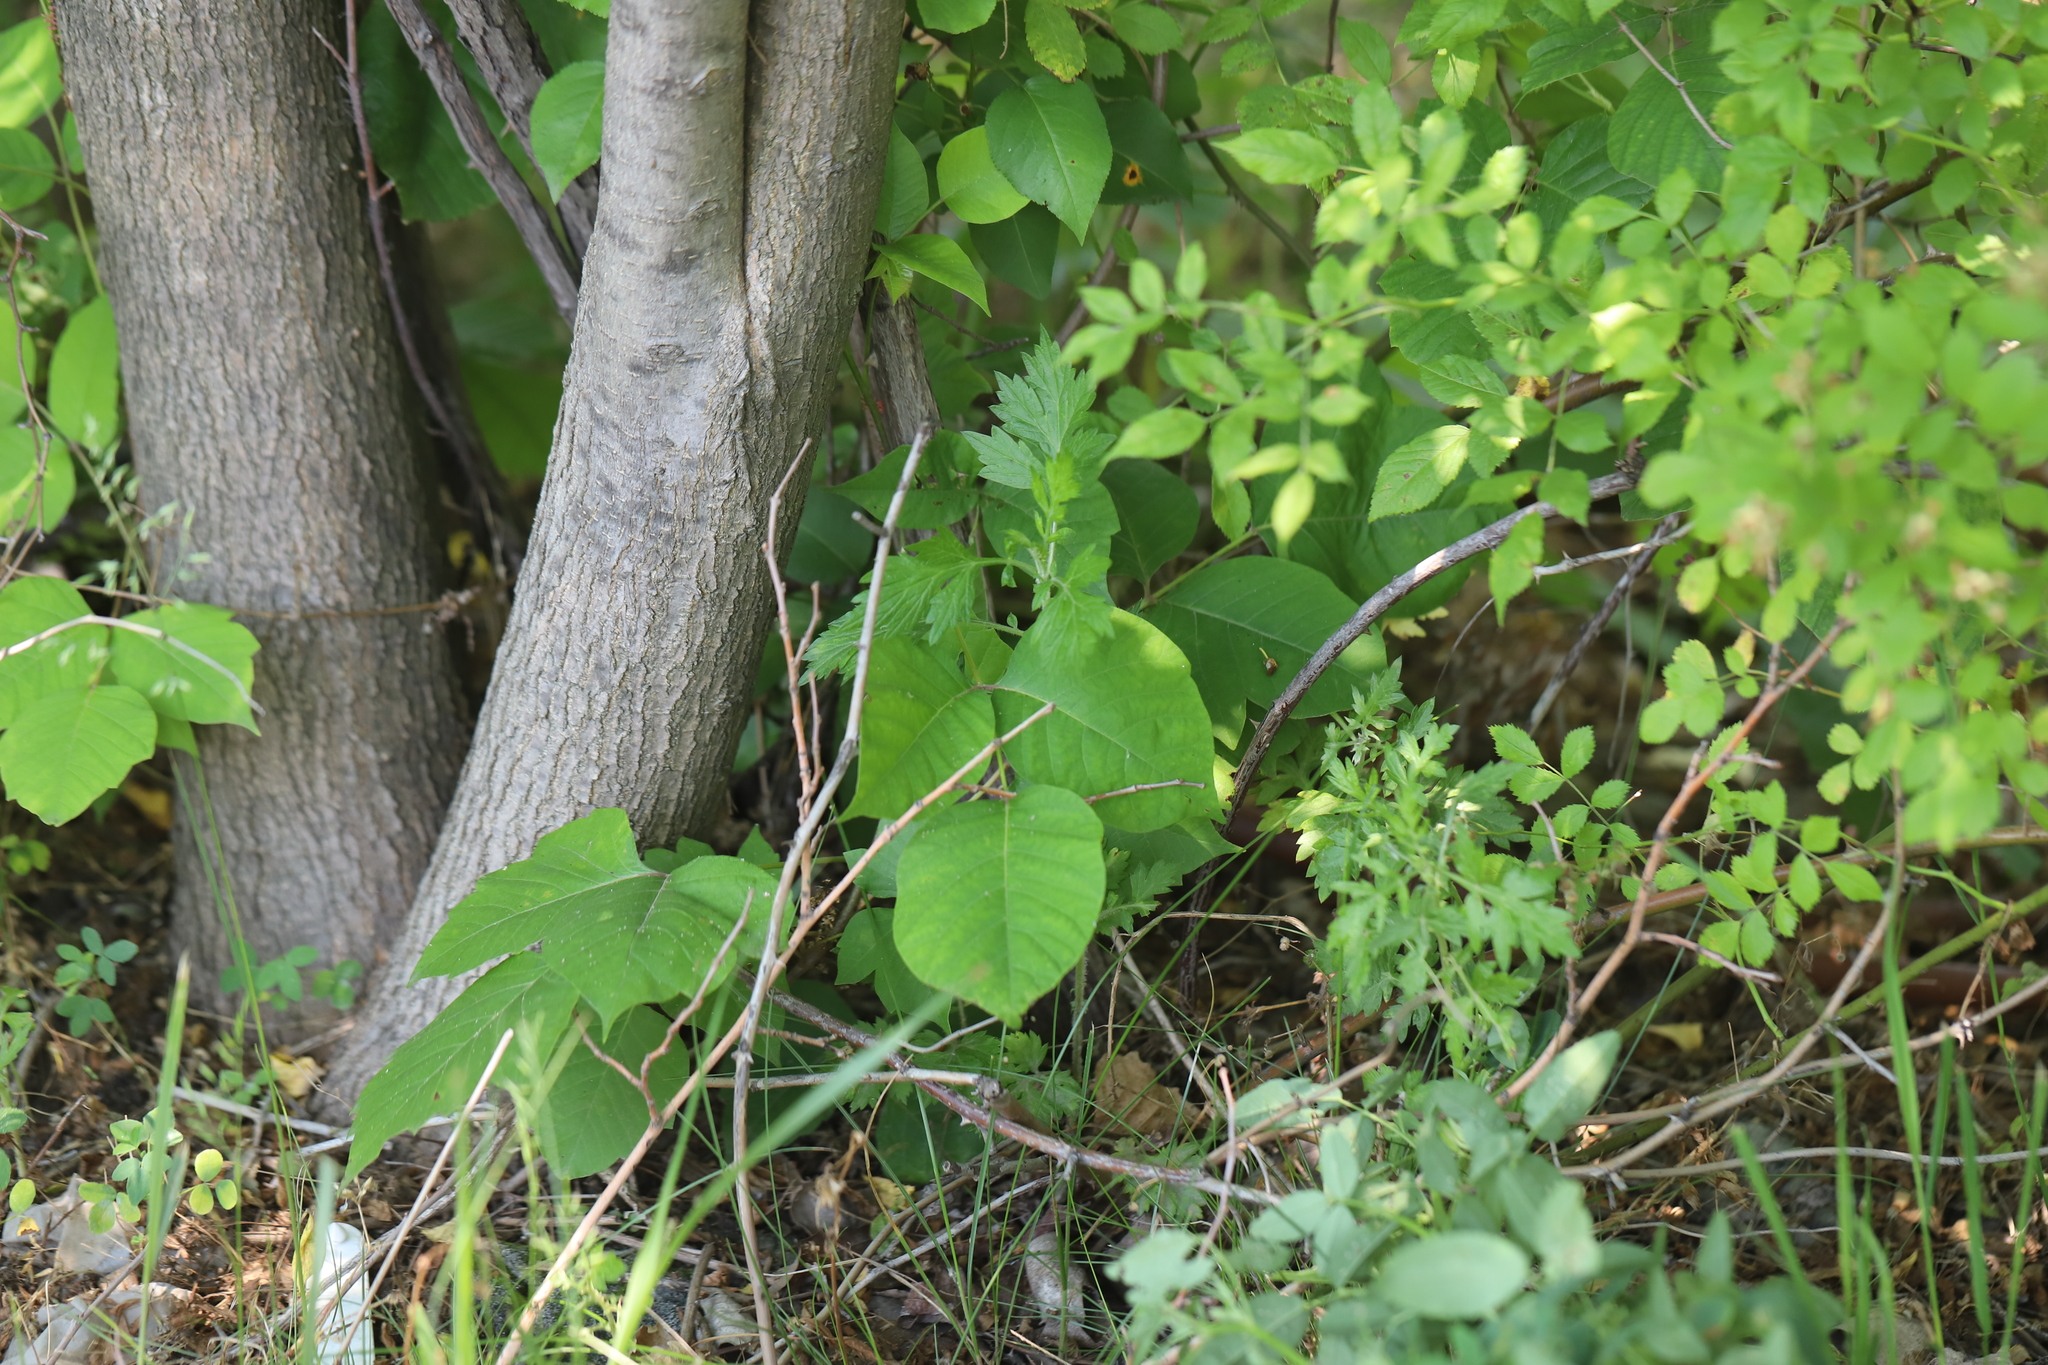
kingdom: Plantae
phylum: Tracheophyta
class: Magnoliopsida
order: Sapindales
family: Anacardiaceae
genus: Toxicodendron
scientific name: Toxicodendron radicans
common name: Poison ivy
